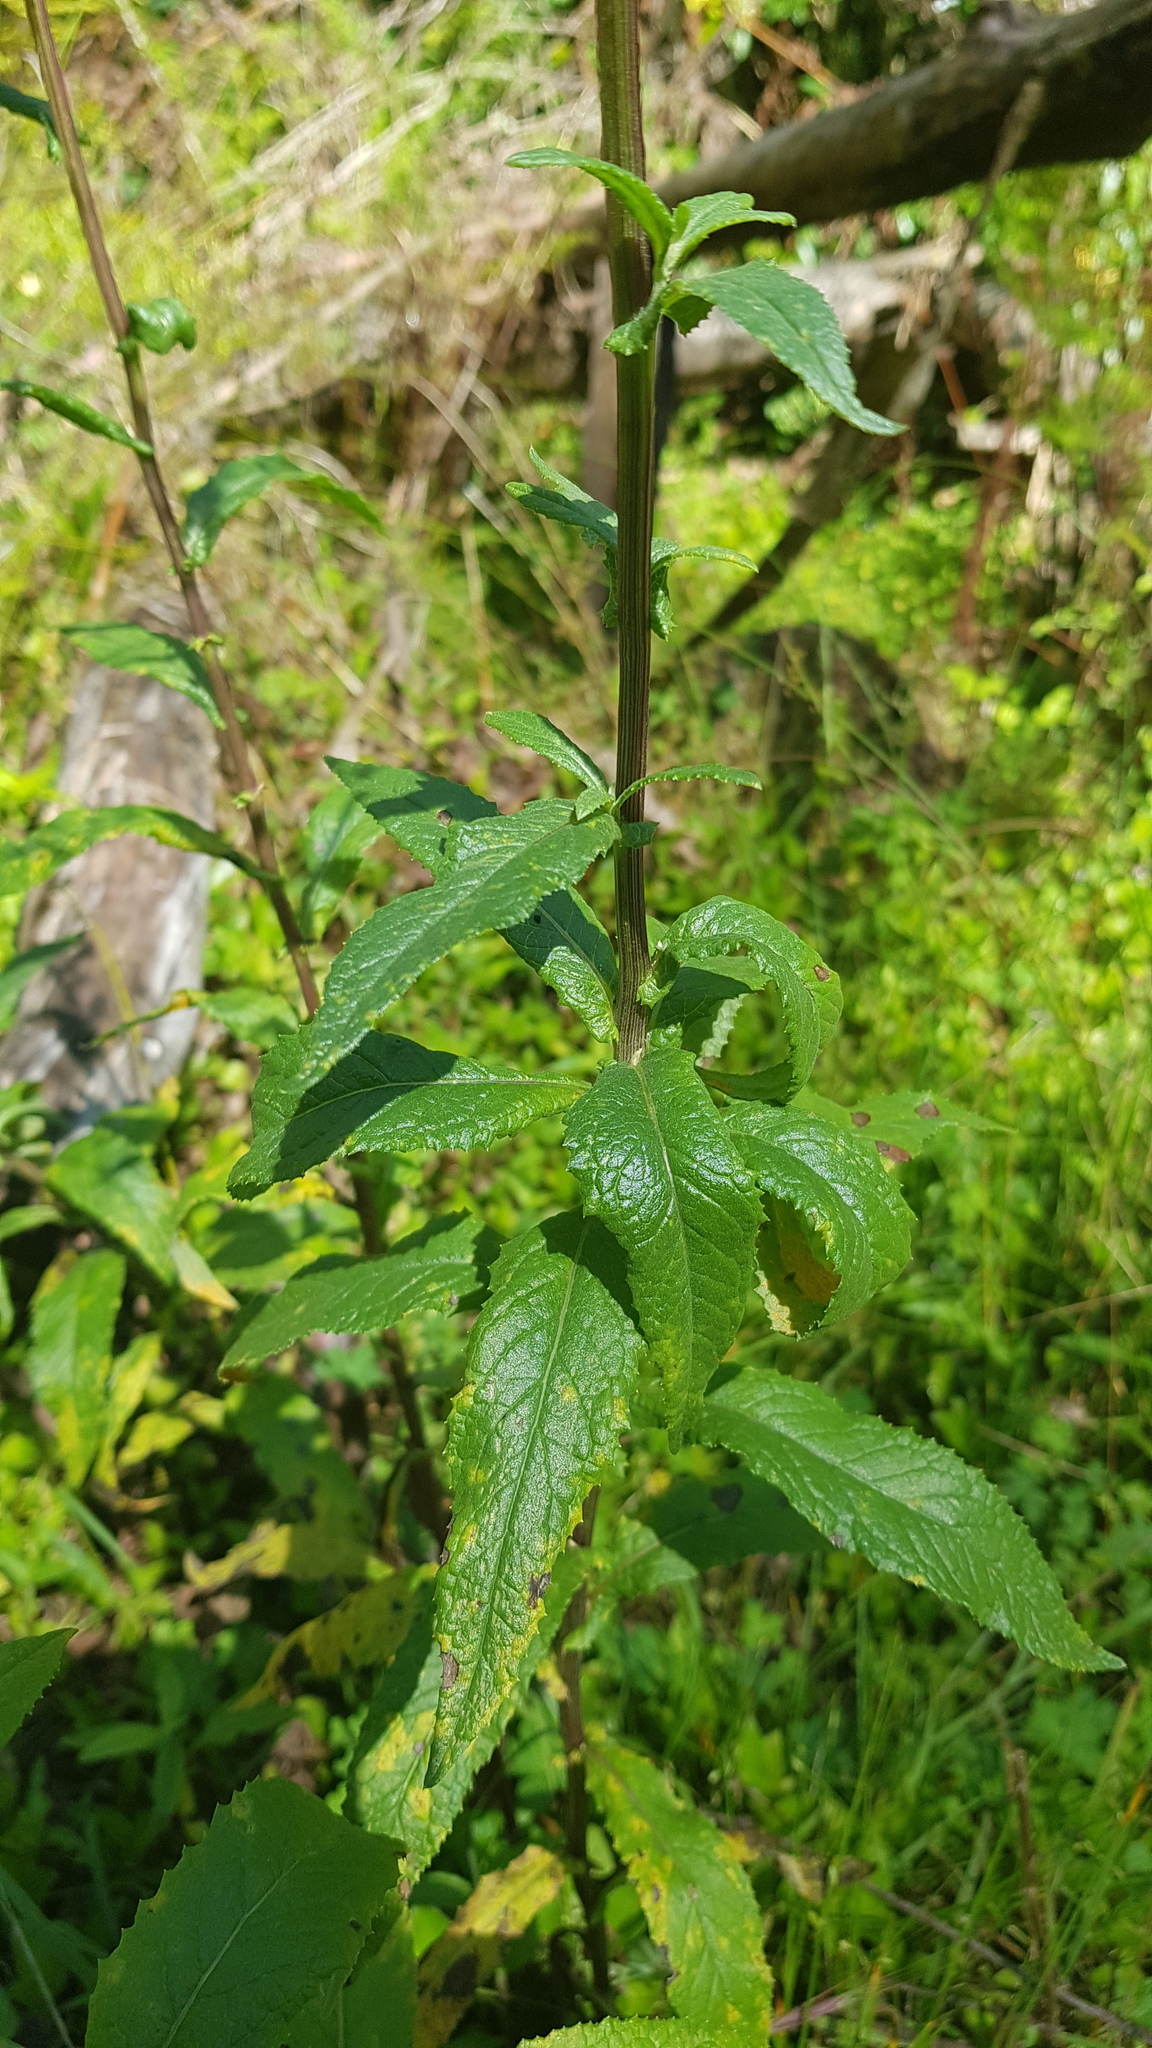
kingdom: Plantae
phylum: Tracheophyta
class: Magnoliopsida
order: Asterales
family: Asteraceae
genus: Senecio
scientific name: Senecio minimus
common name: Toothed fireweed
